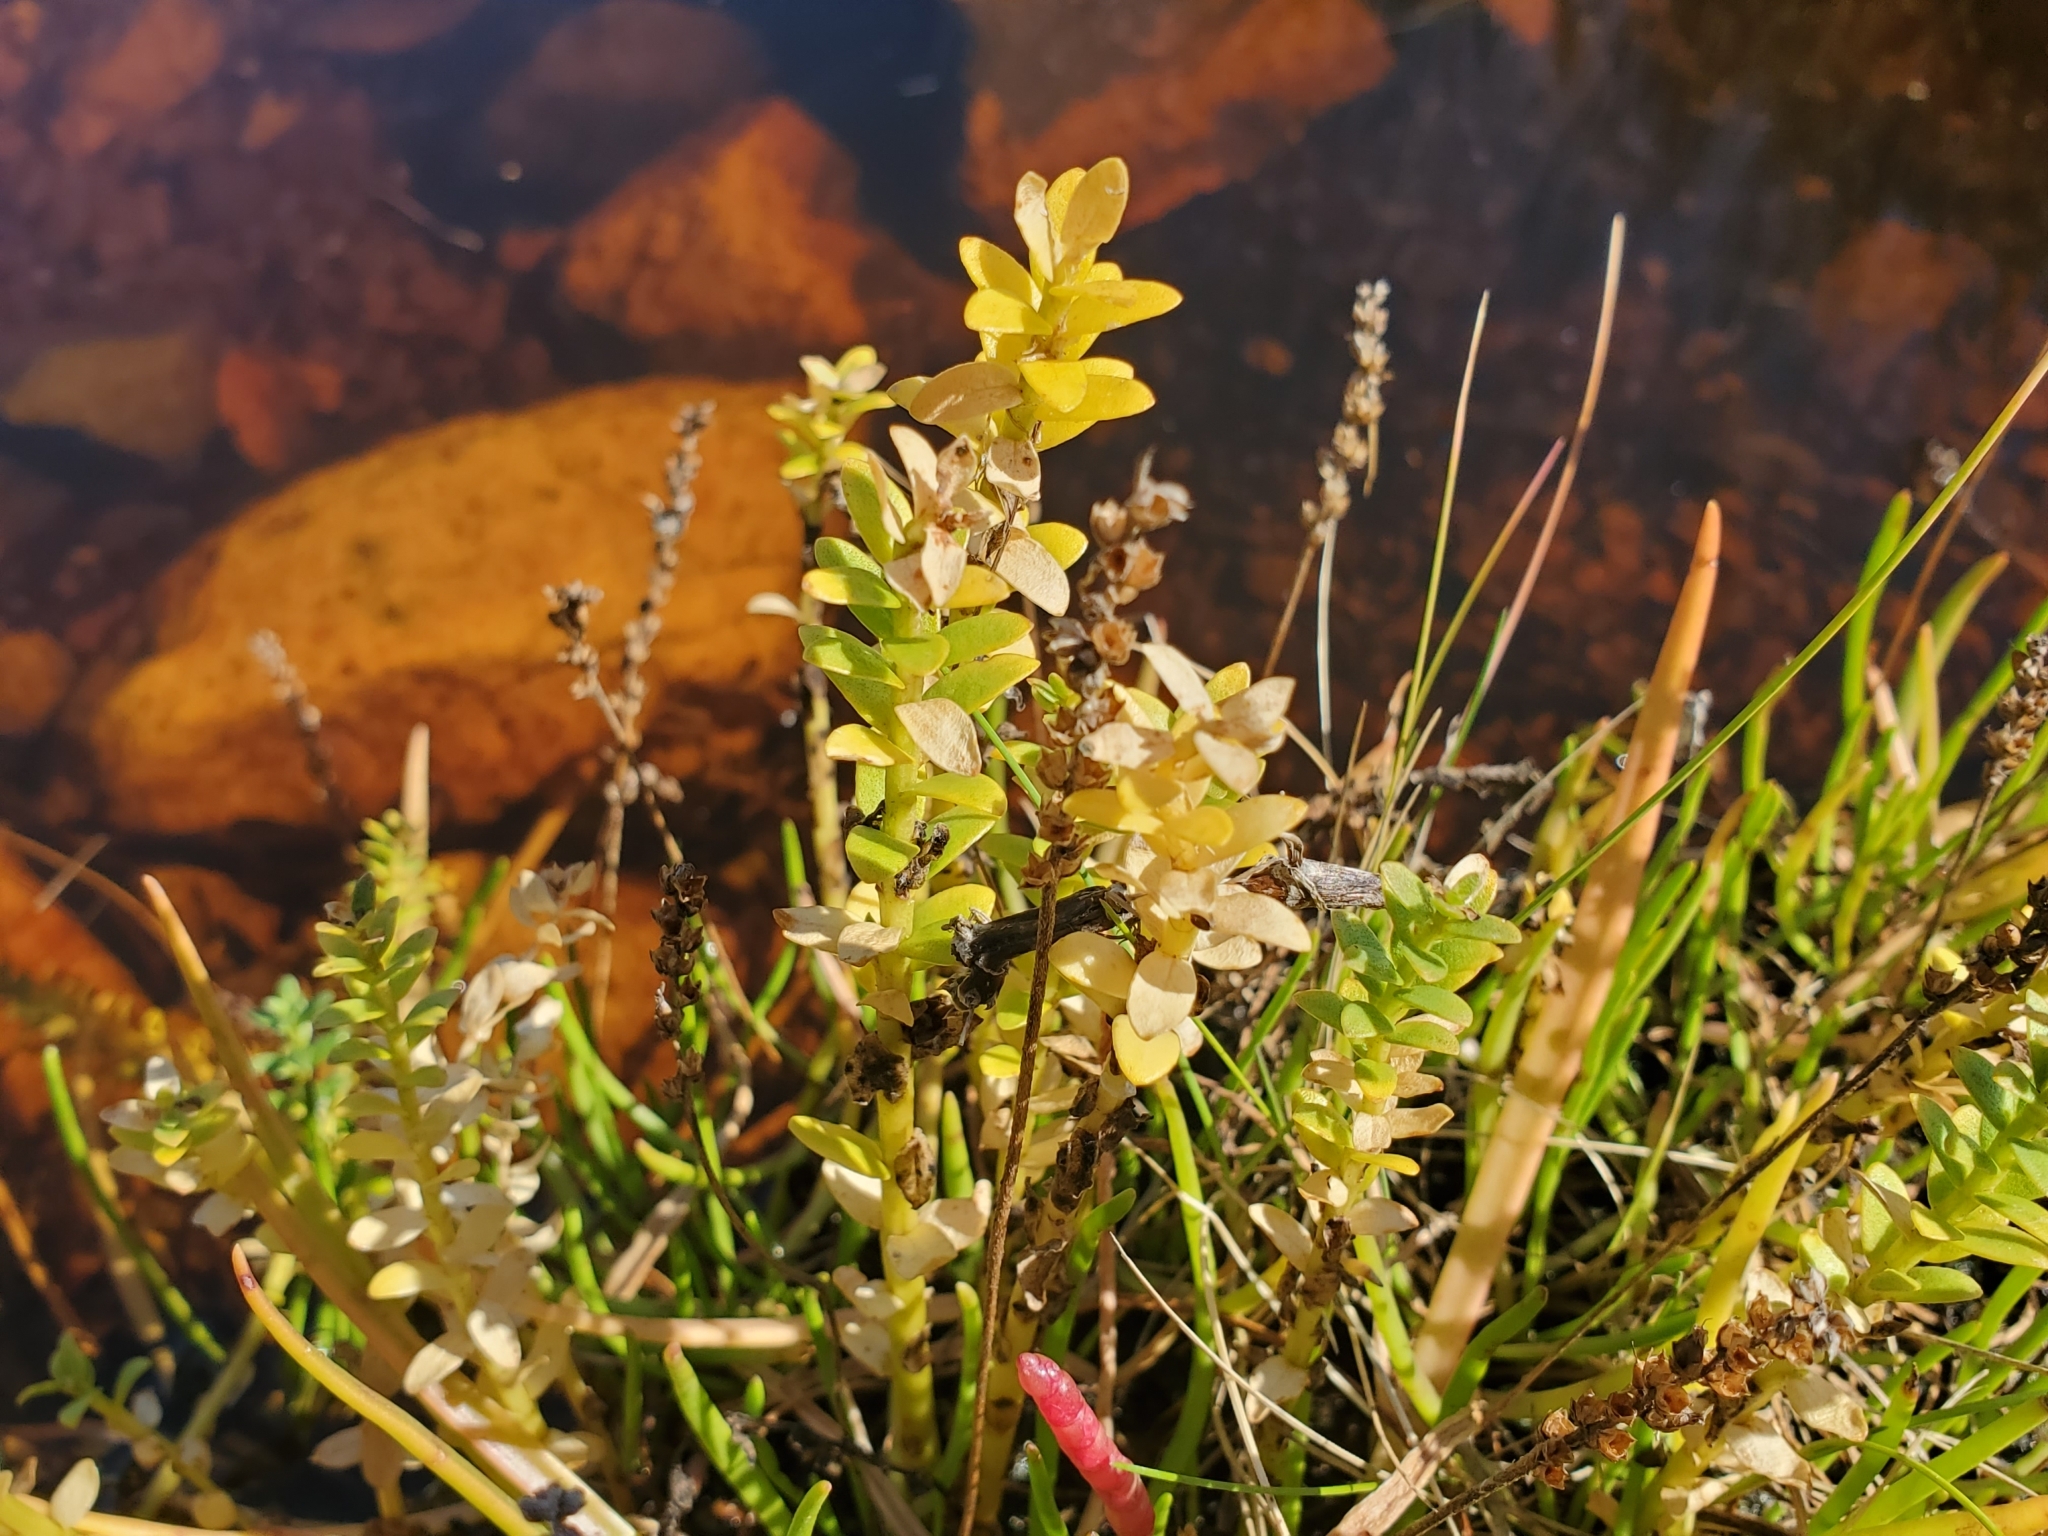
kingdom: Plantae
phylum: Tracheophyta
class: Magnoliopsida
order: Ericales
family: Primulaceae
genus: Lysimachia
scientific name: Lysimachia maritima
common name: Sea milkwort
